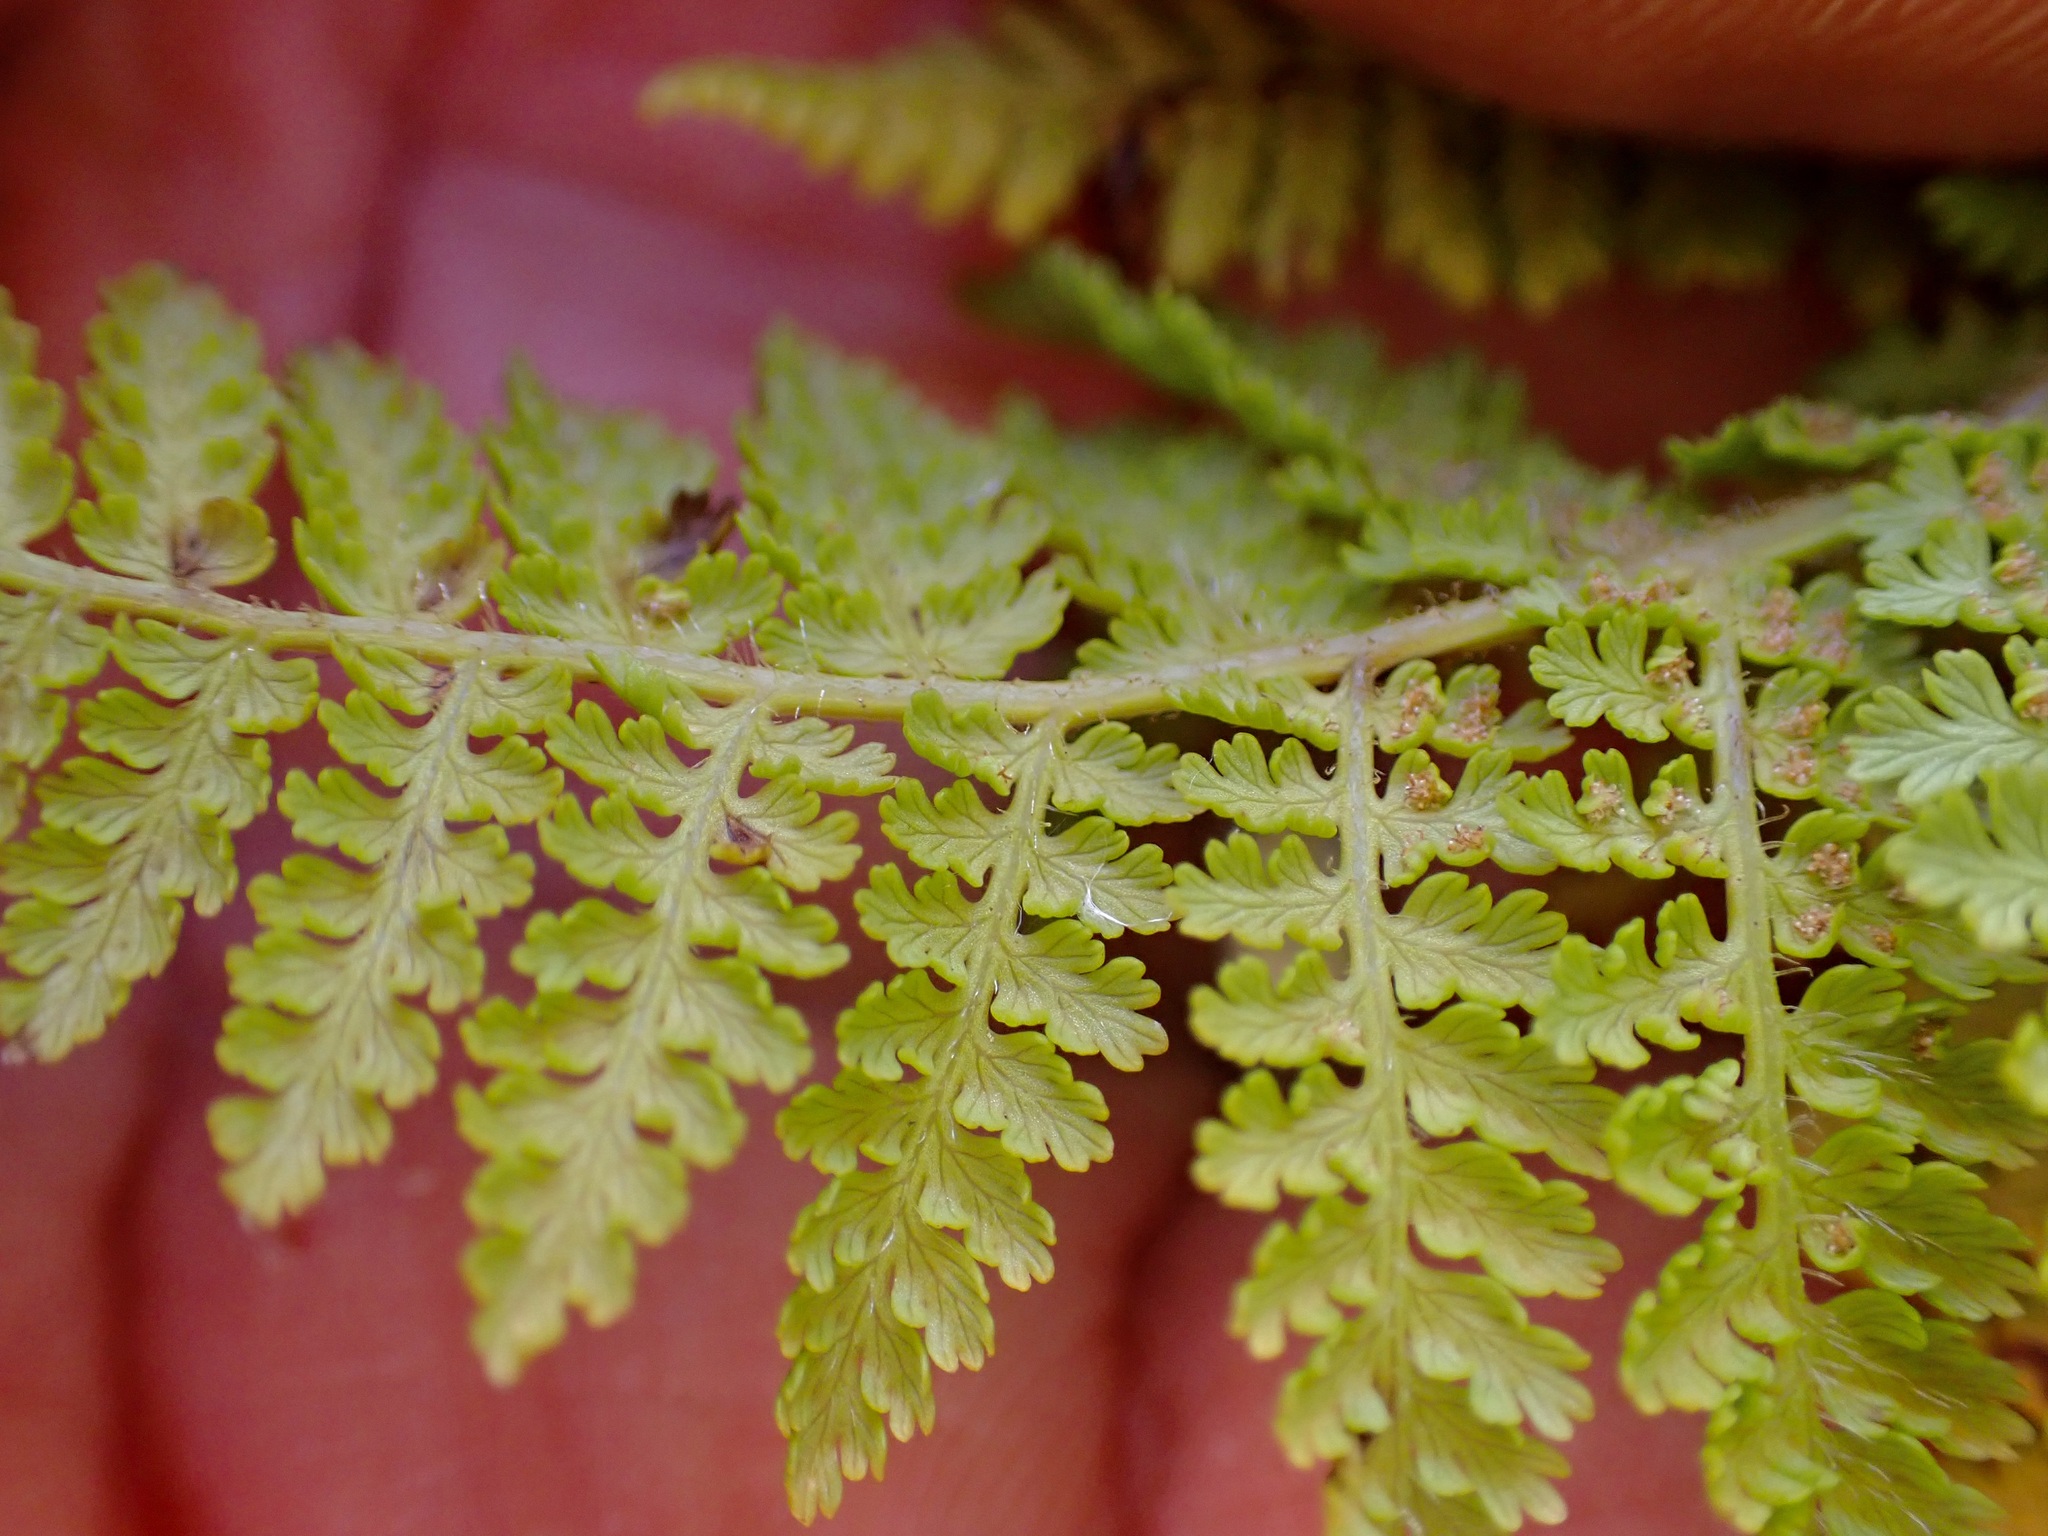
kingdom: Plantae
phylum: Tracheophyta
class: Polypodiopsida
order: Polypodiales
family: Dennstaedtiaceae
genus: Hypolepis
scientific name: Hypolepis millefolium
